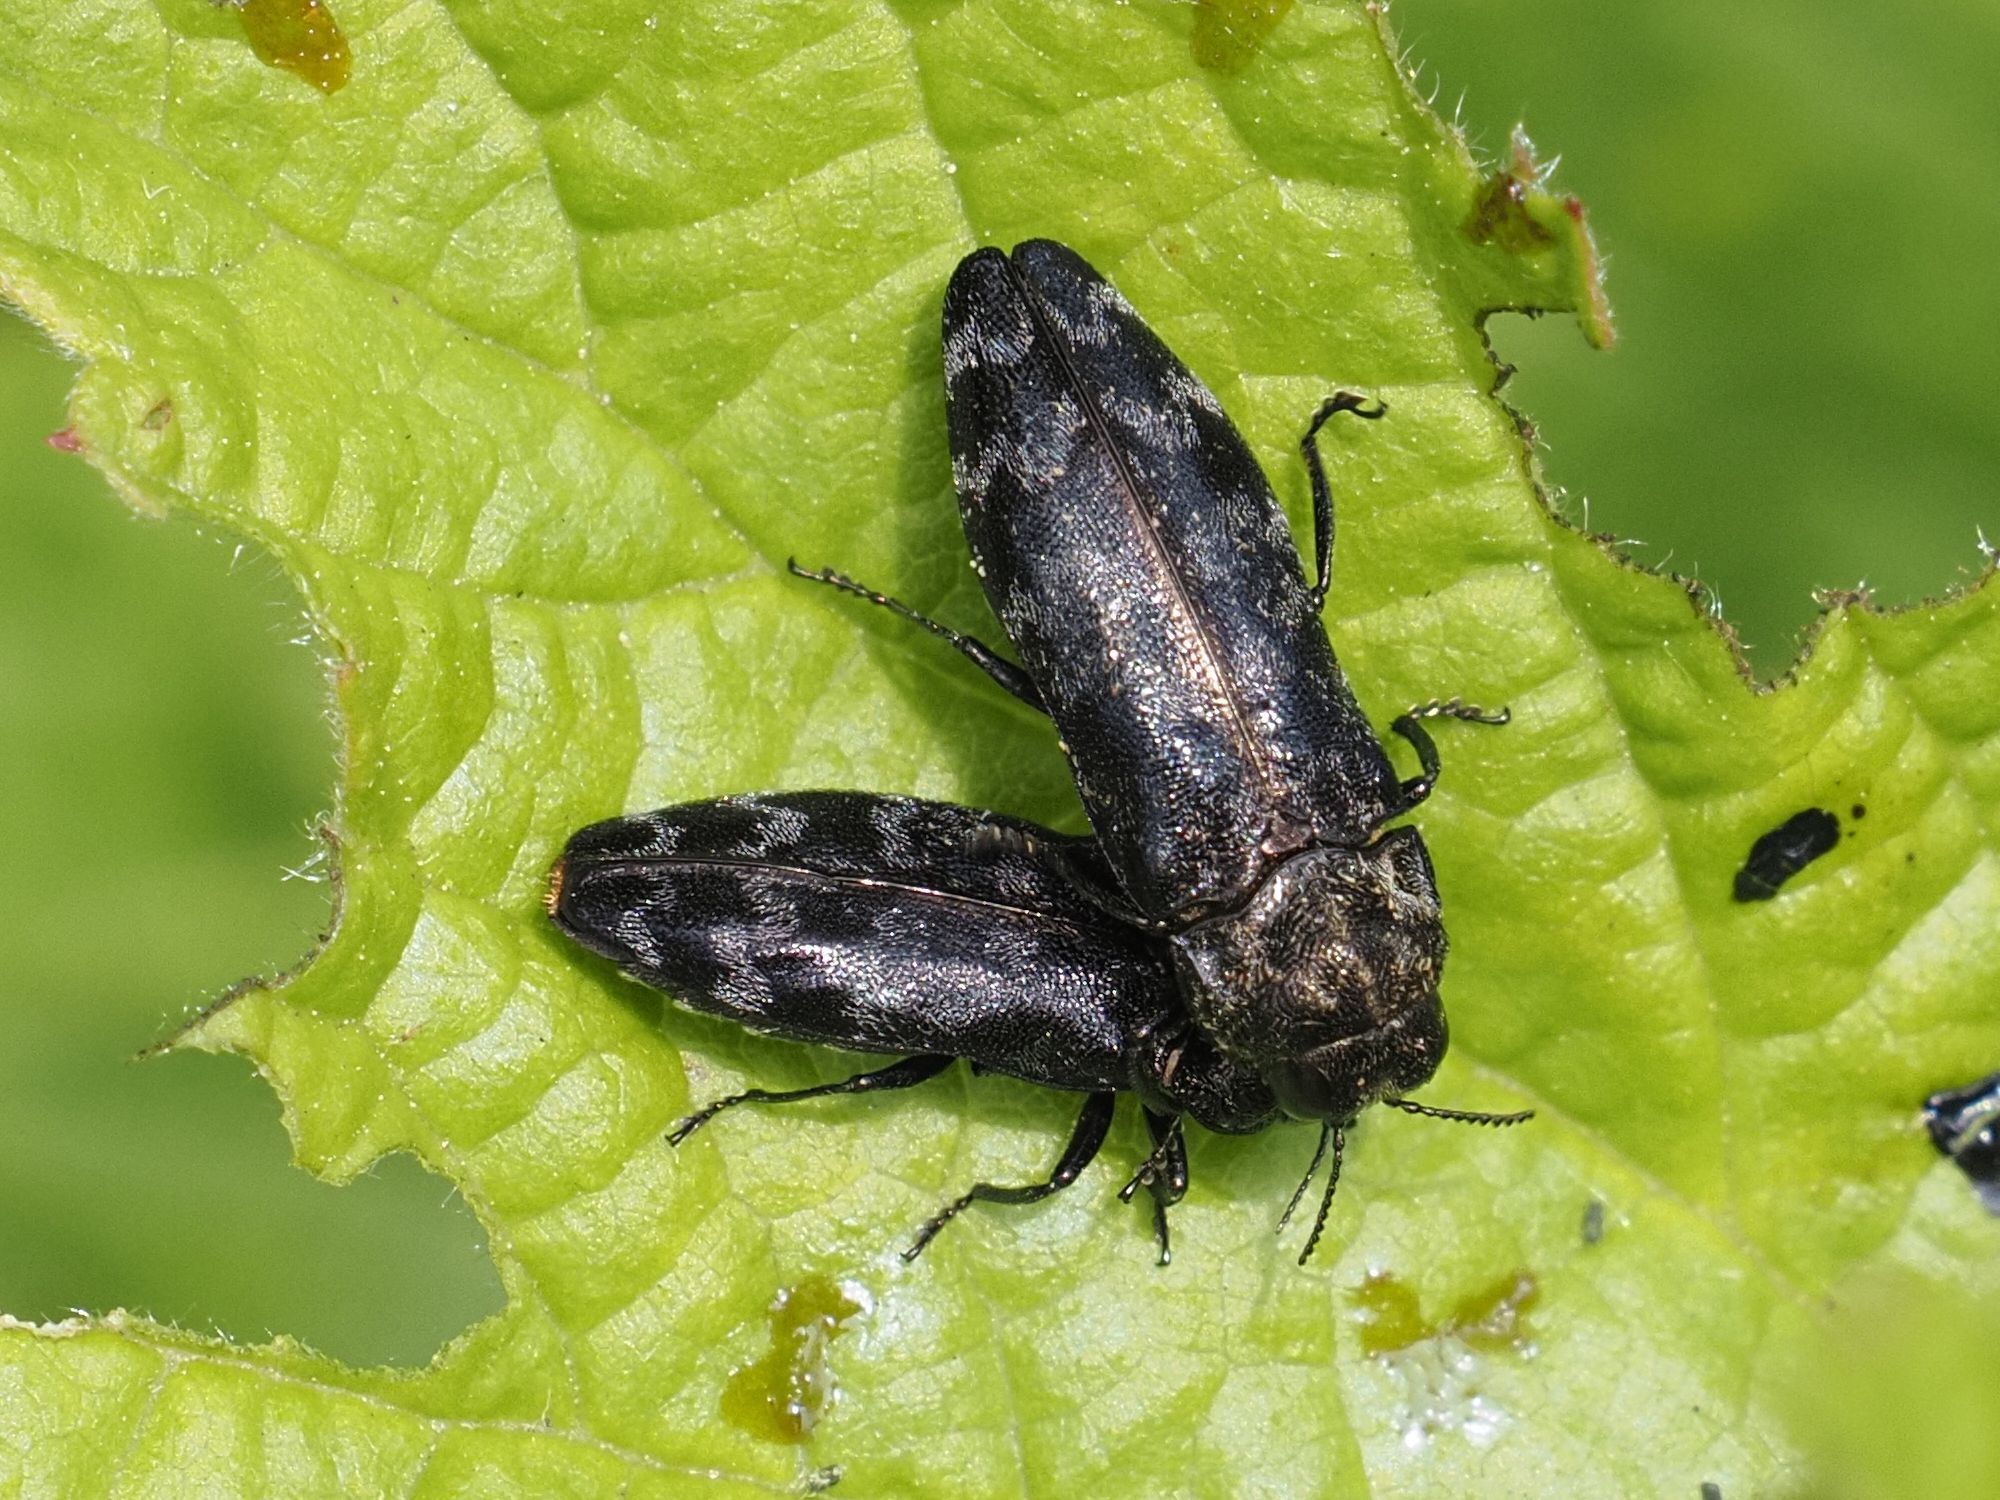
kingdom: Animalia
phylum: Arthropoda
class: Insecta
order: Coleoptera
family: Buprestidae
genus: Coraebus
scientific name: Coraebus rubi
